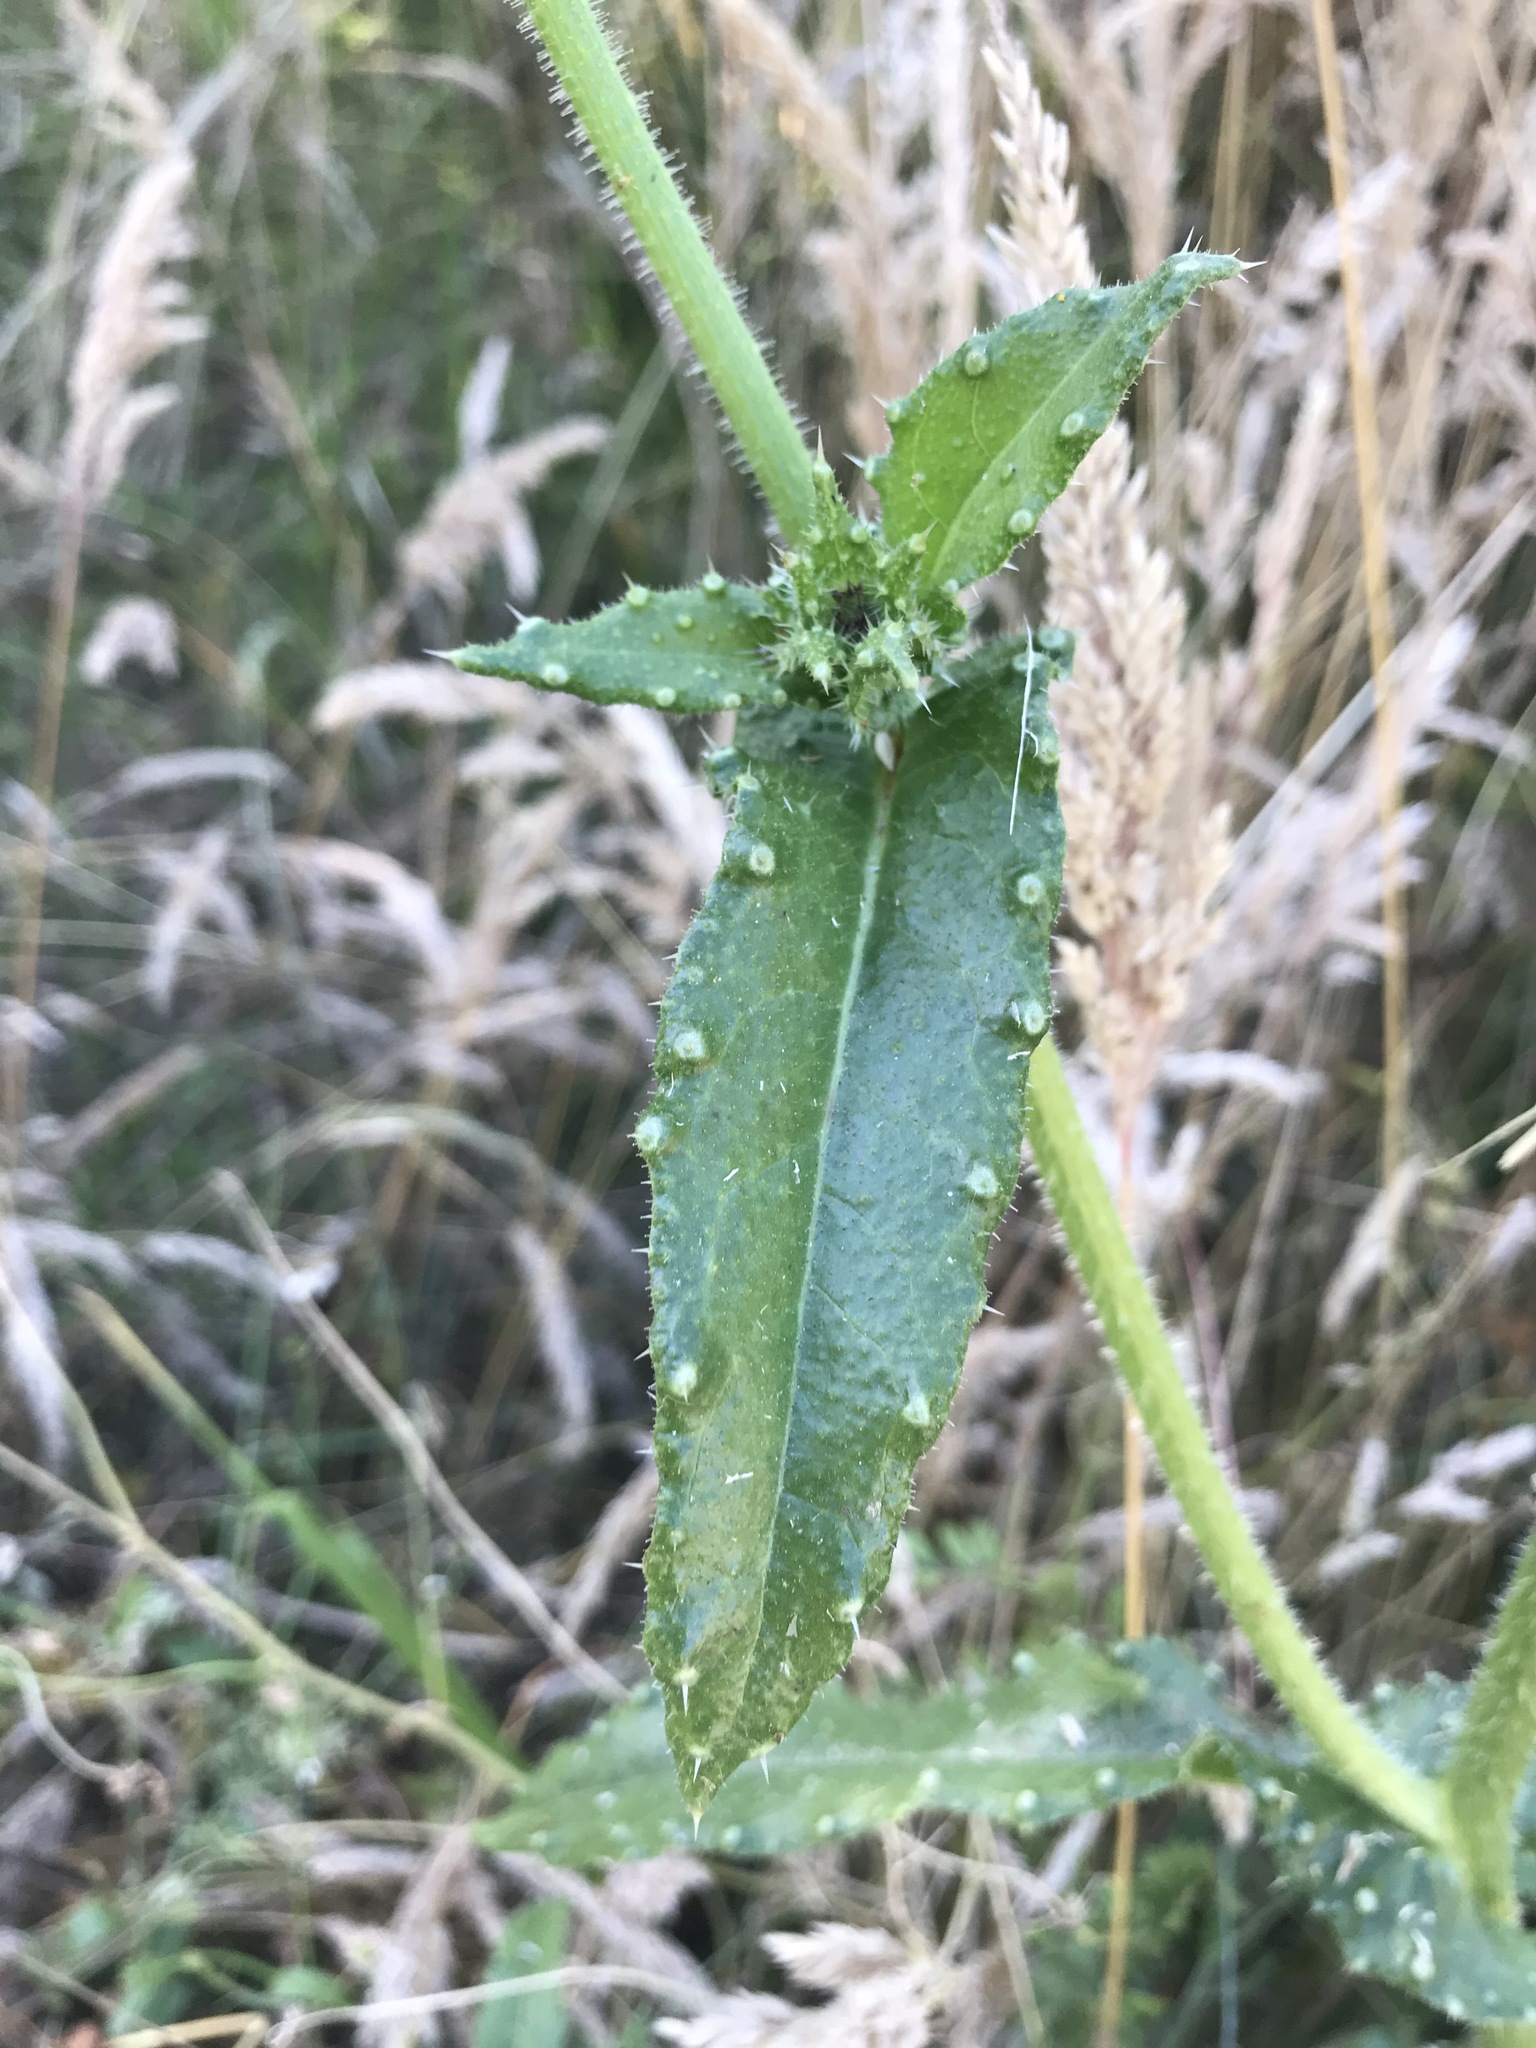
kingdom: Plantae
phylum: Tracheophyta
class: Magnoliopsida
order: Asterales
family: Asteraceae
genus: Helminthotheca
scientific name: Helminthotheca echioides
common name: Ox-tongue
